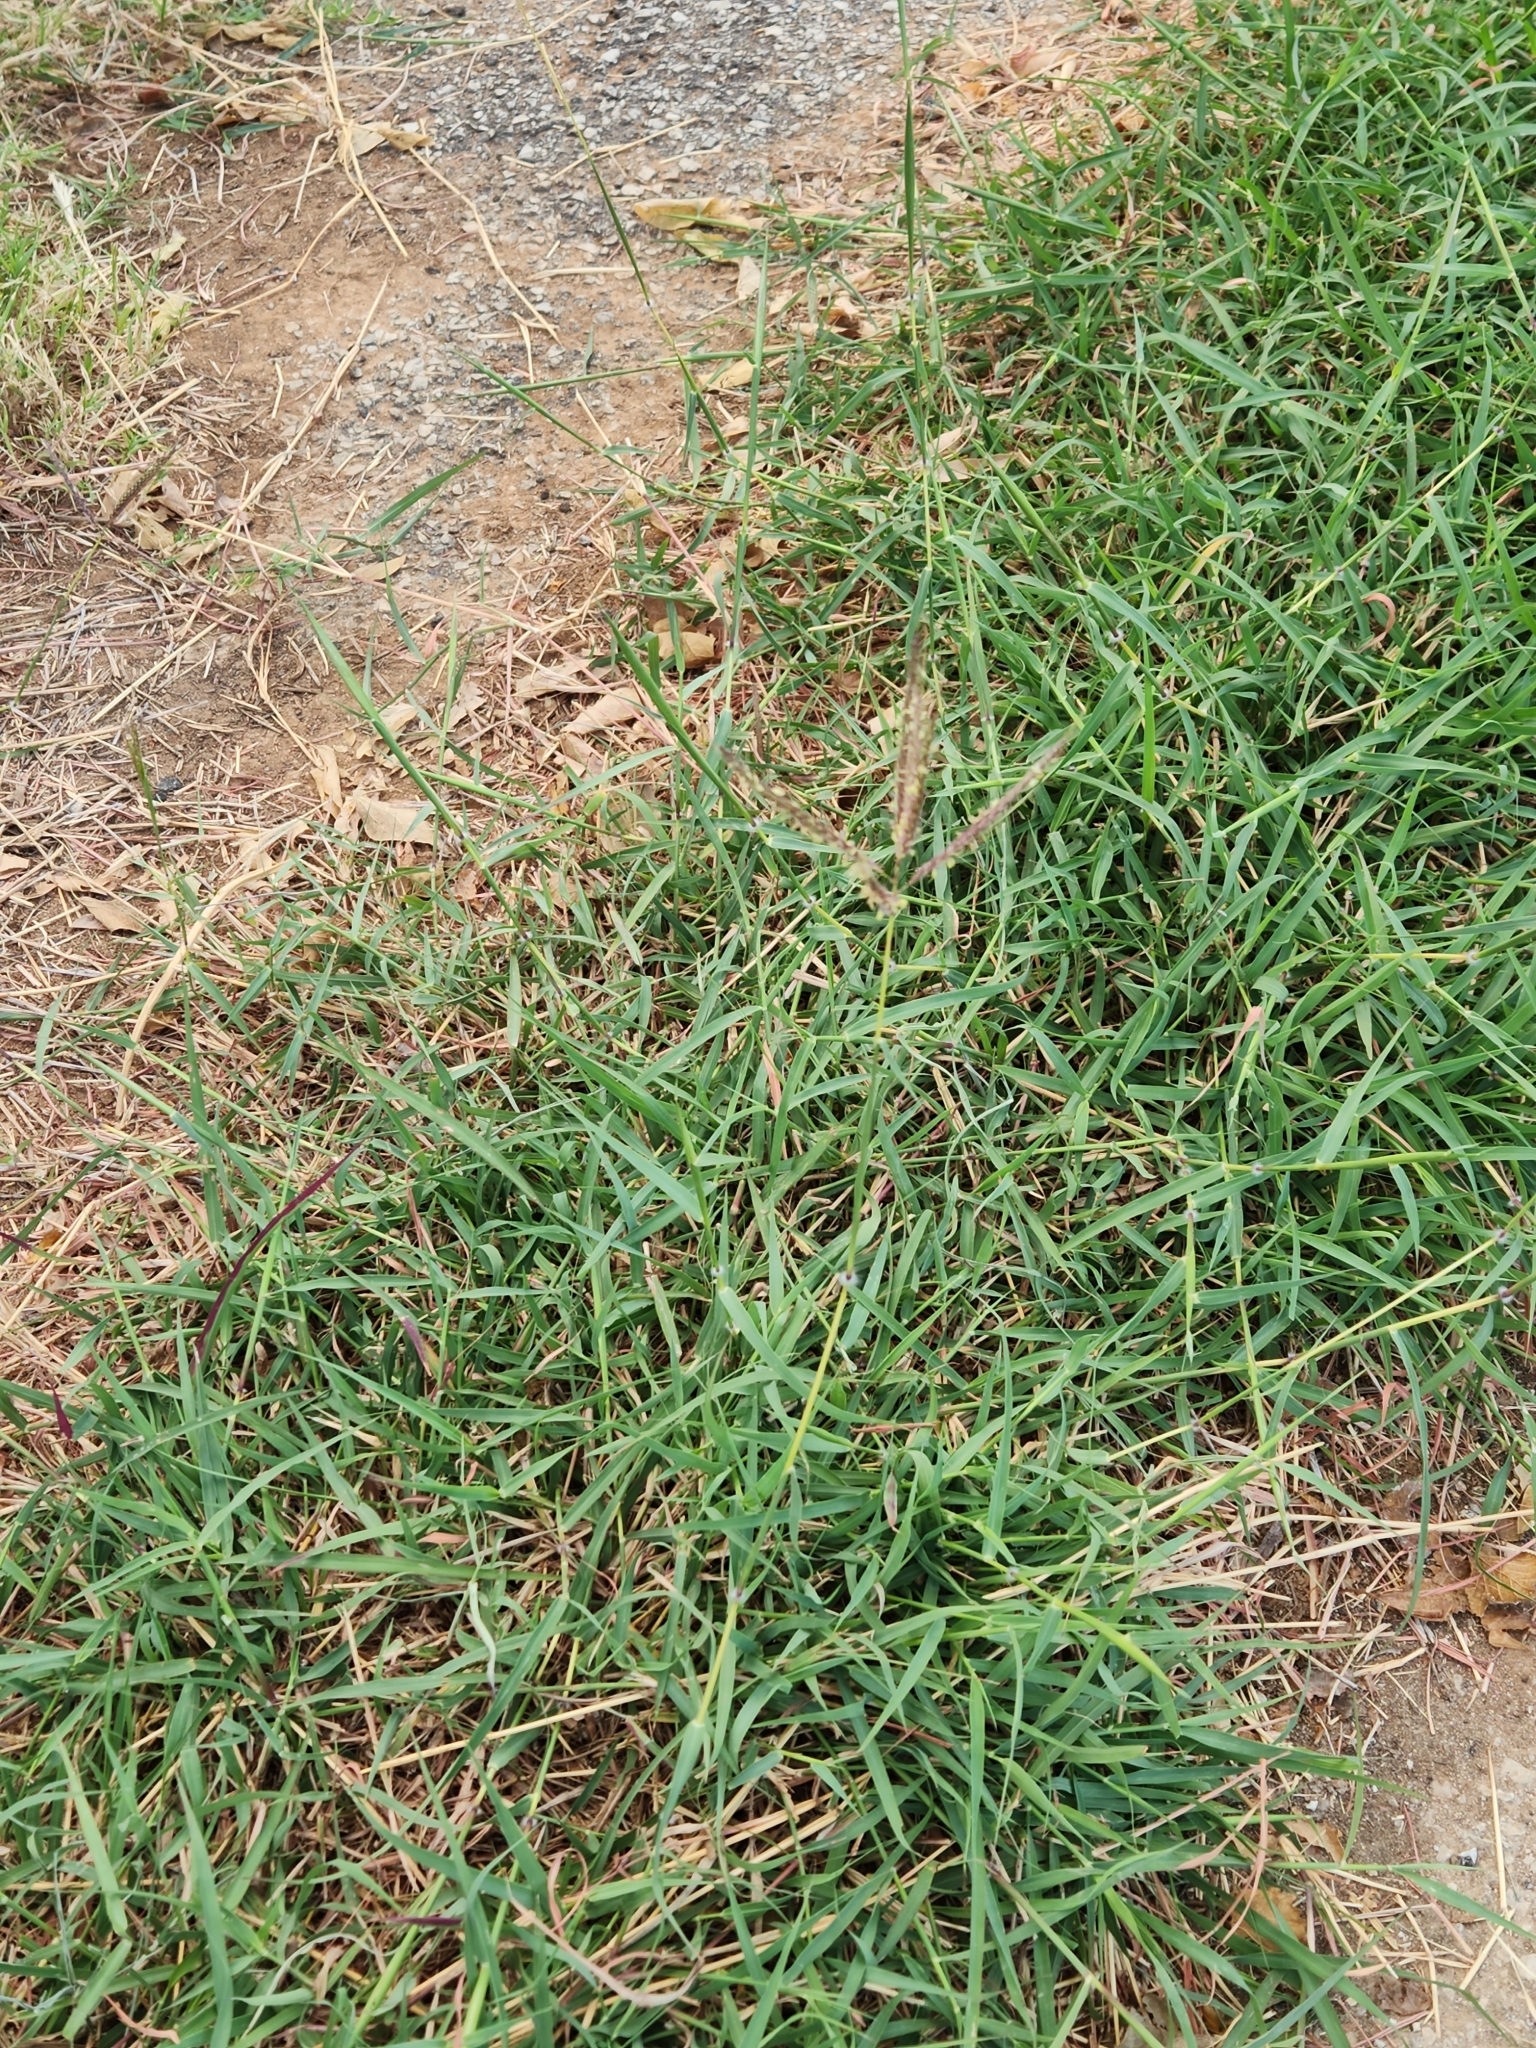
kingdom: Plantae
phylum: Tracheophyta
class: Liliopsida
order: Poales
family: Poaceae
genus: Dichanthium
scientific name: Dichanthium annulatum
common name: Kleberg's bluestem
